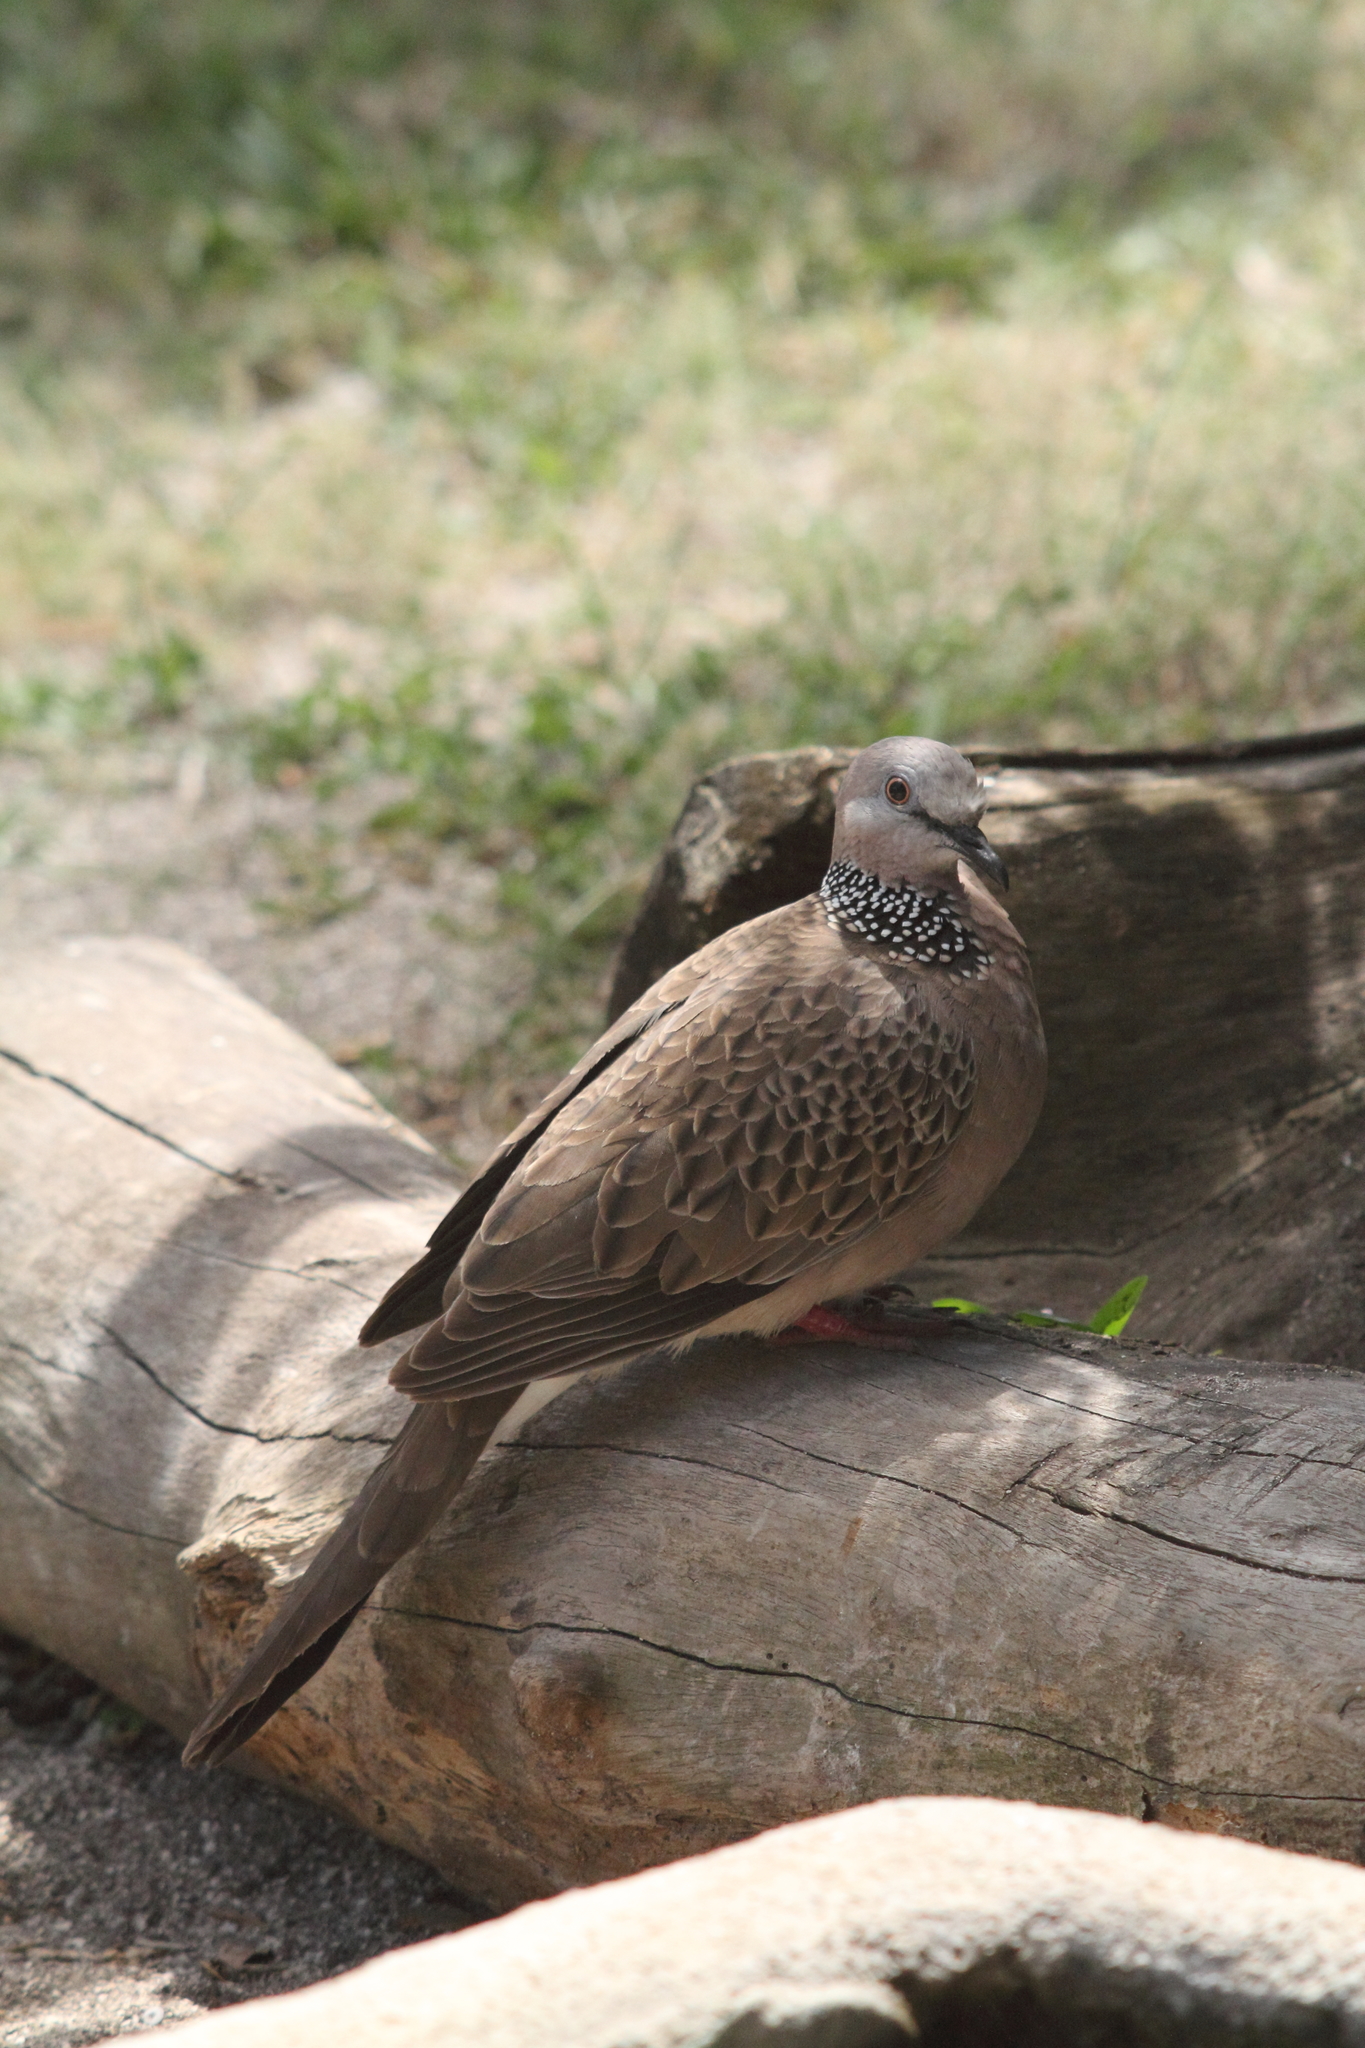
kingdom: Animalia
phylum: Chordata
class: Aves
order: Columbiformes
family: Columbidae
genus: Spilopelia
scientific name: Spilopelia chinensis
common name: Spotted dove
